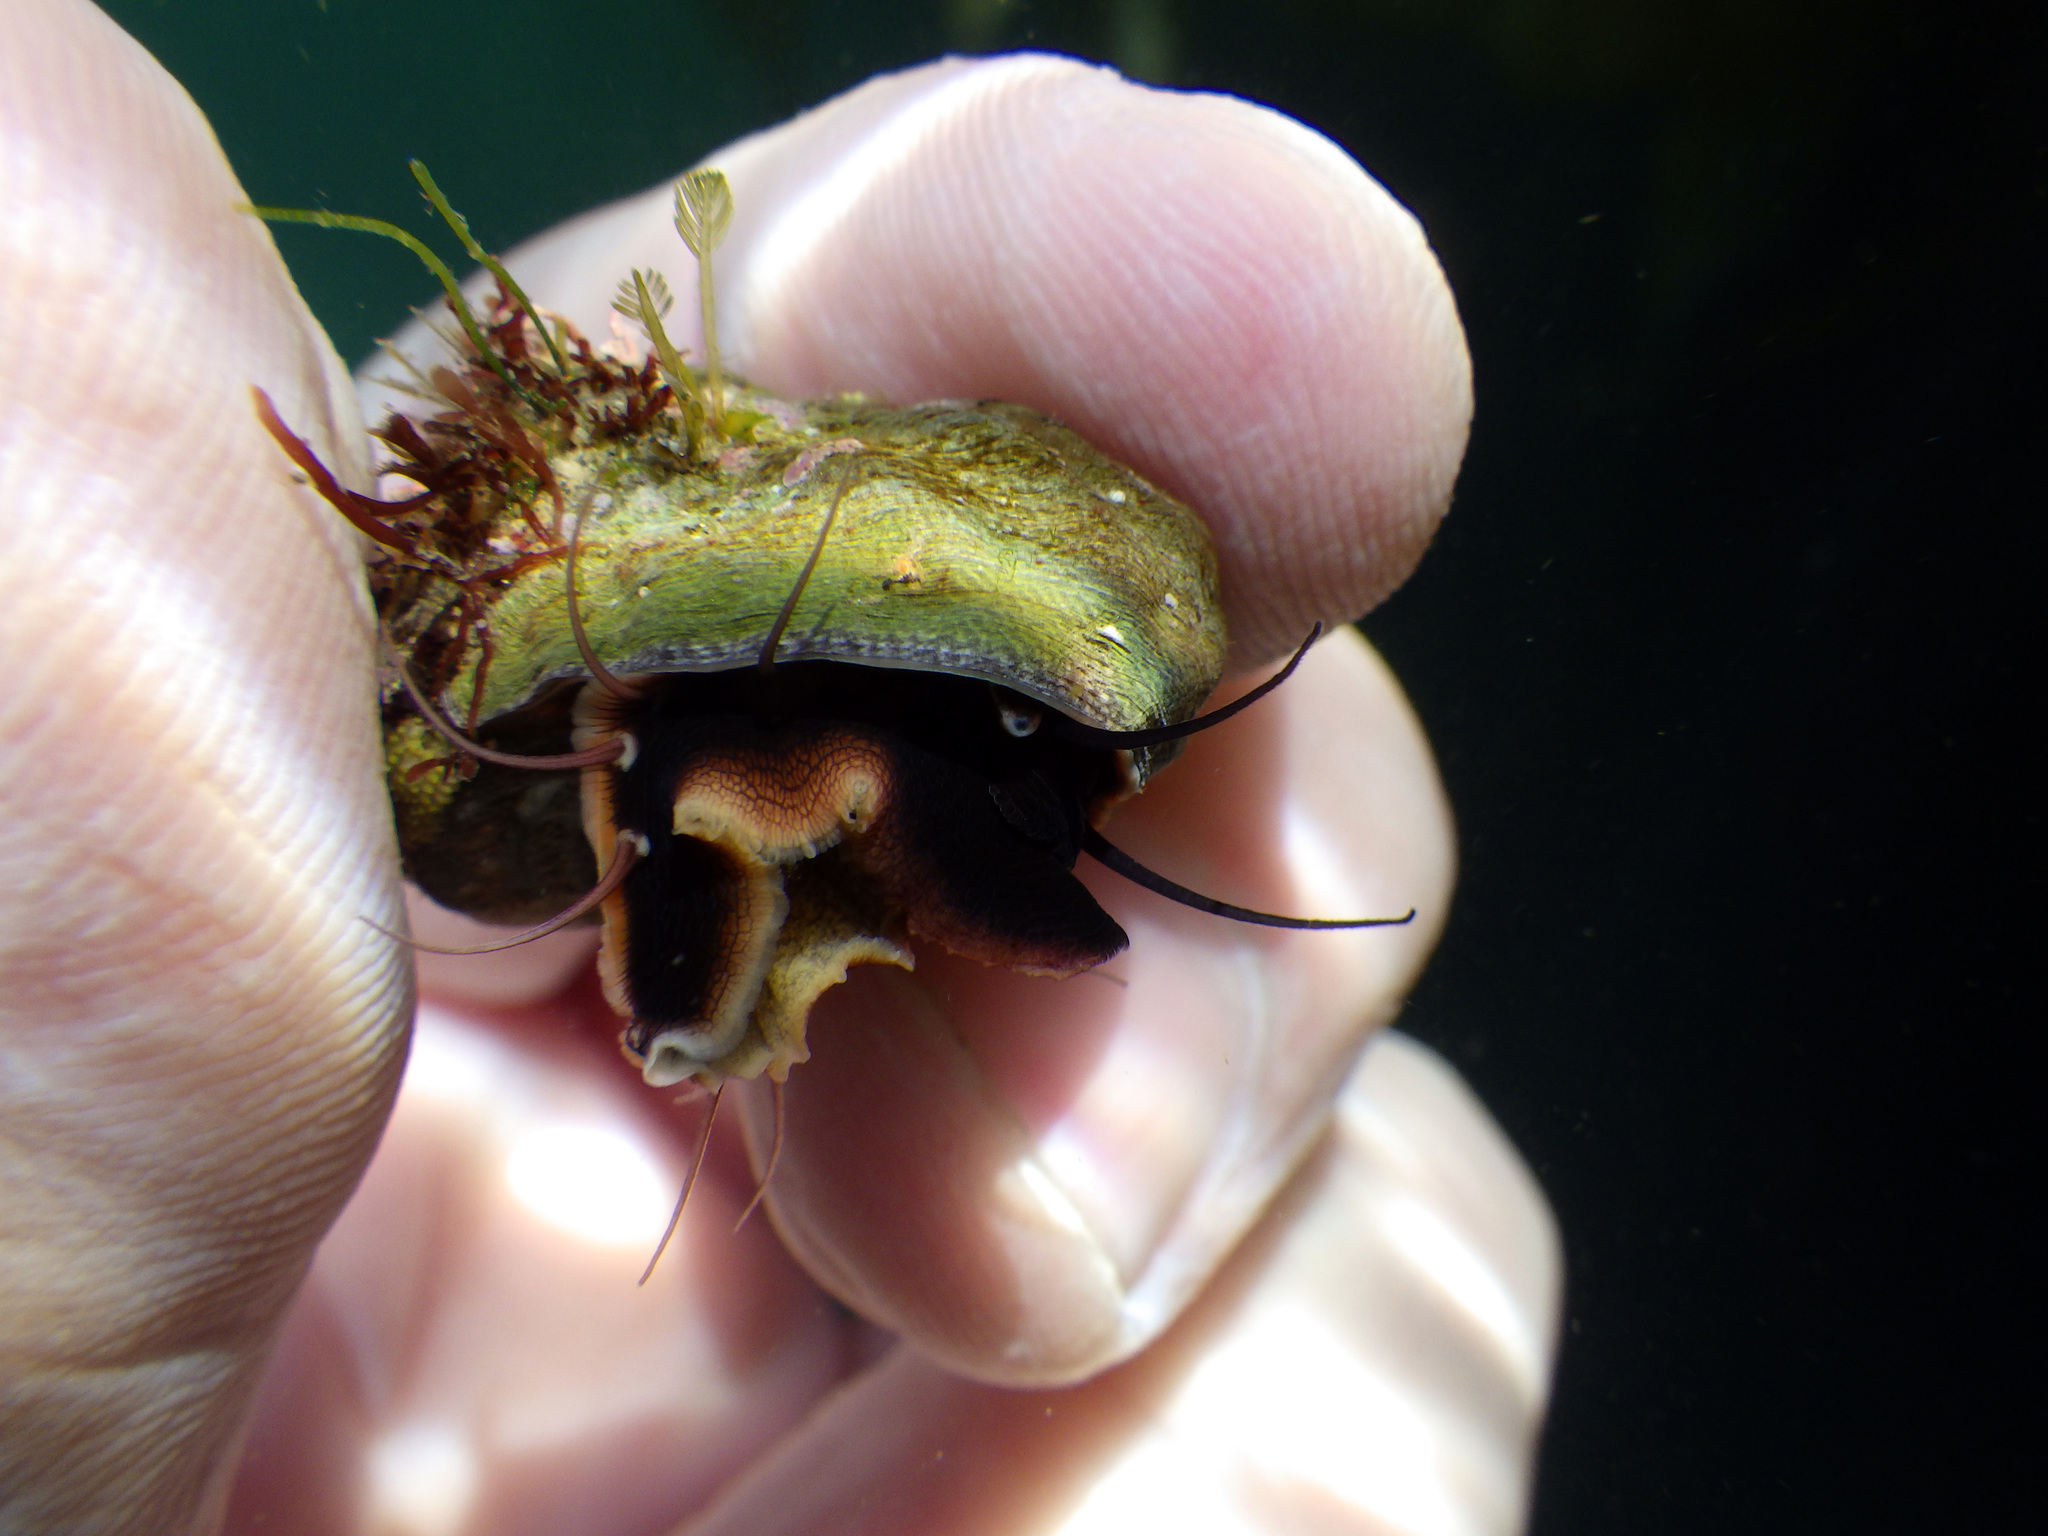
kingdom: Animalia
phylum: Mollusca
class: Gastropoda
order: Trochida
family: Tegulidae
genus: Tegula
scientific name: Tegula aureotincta
